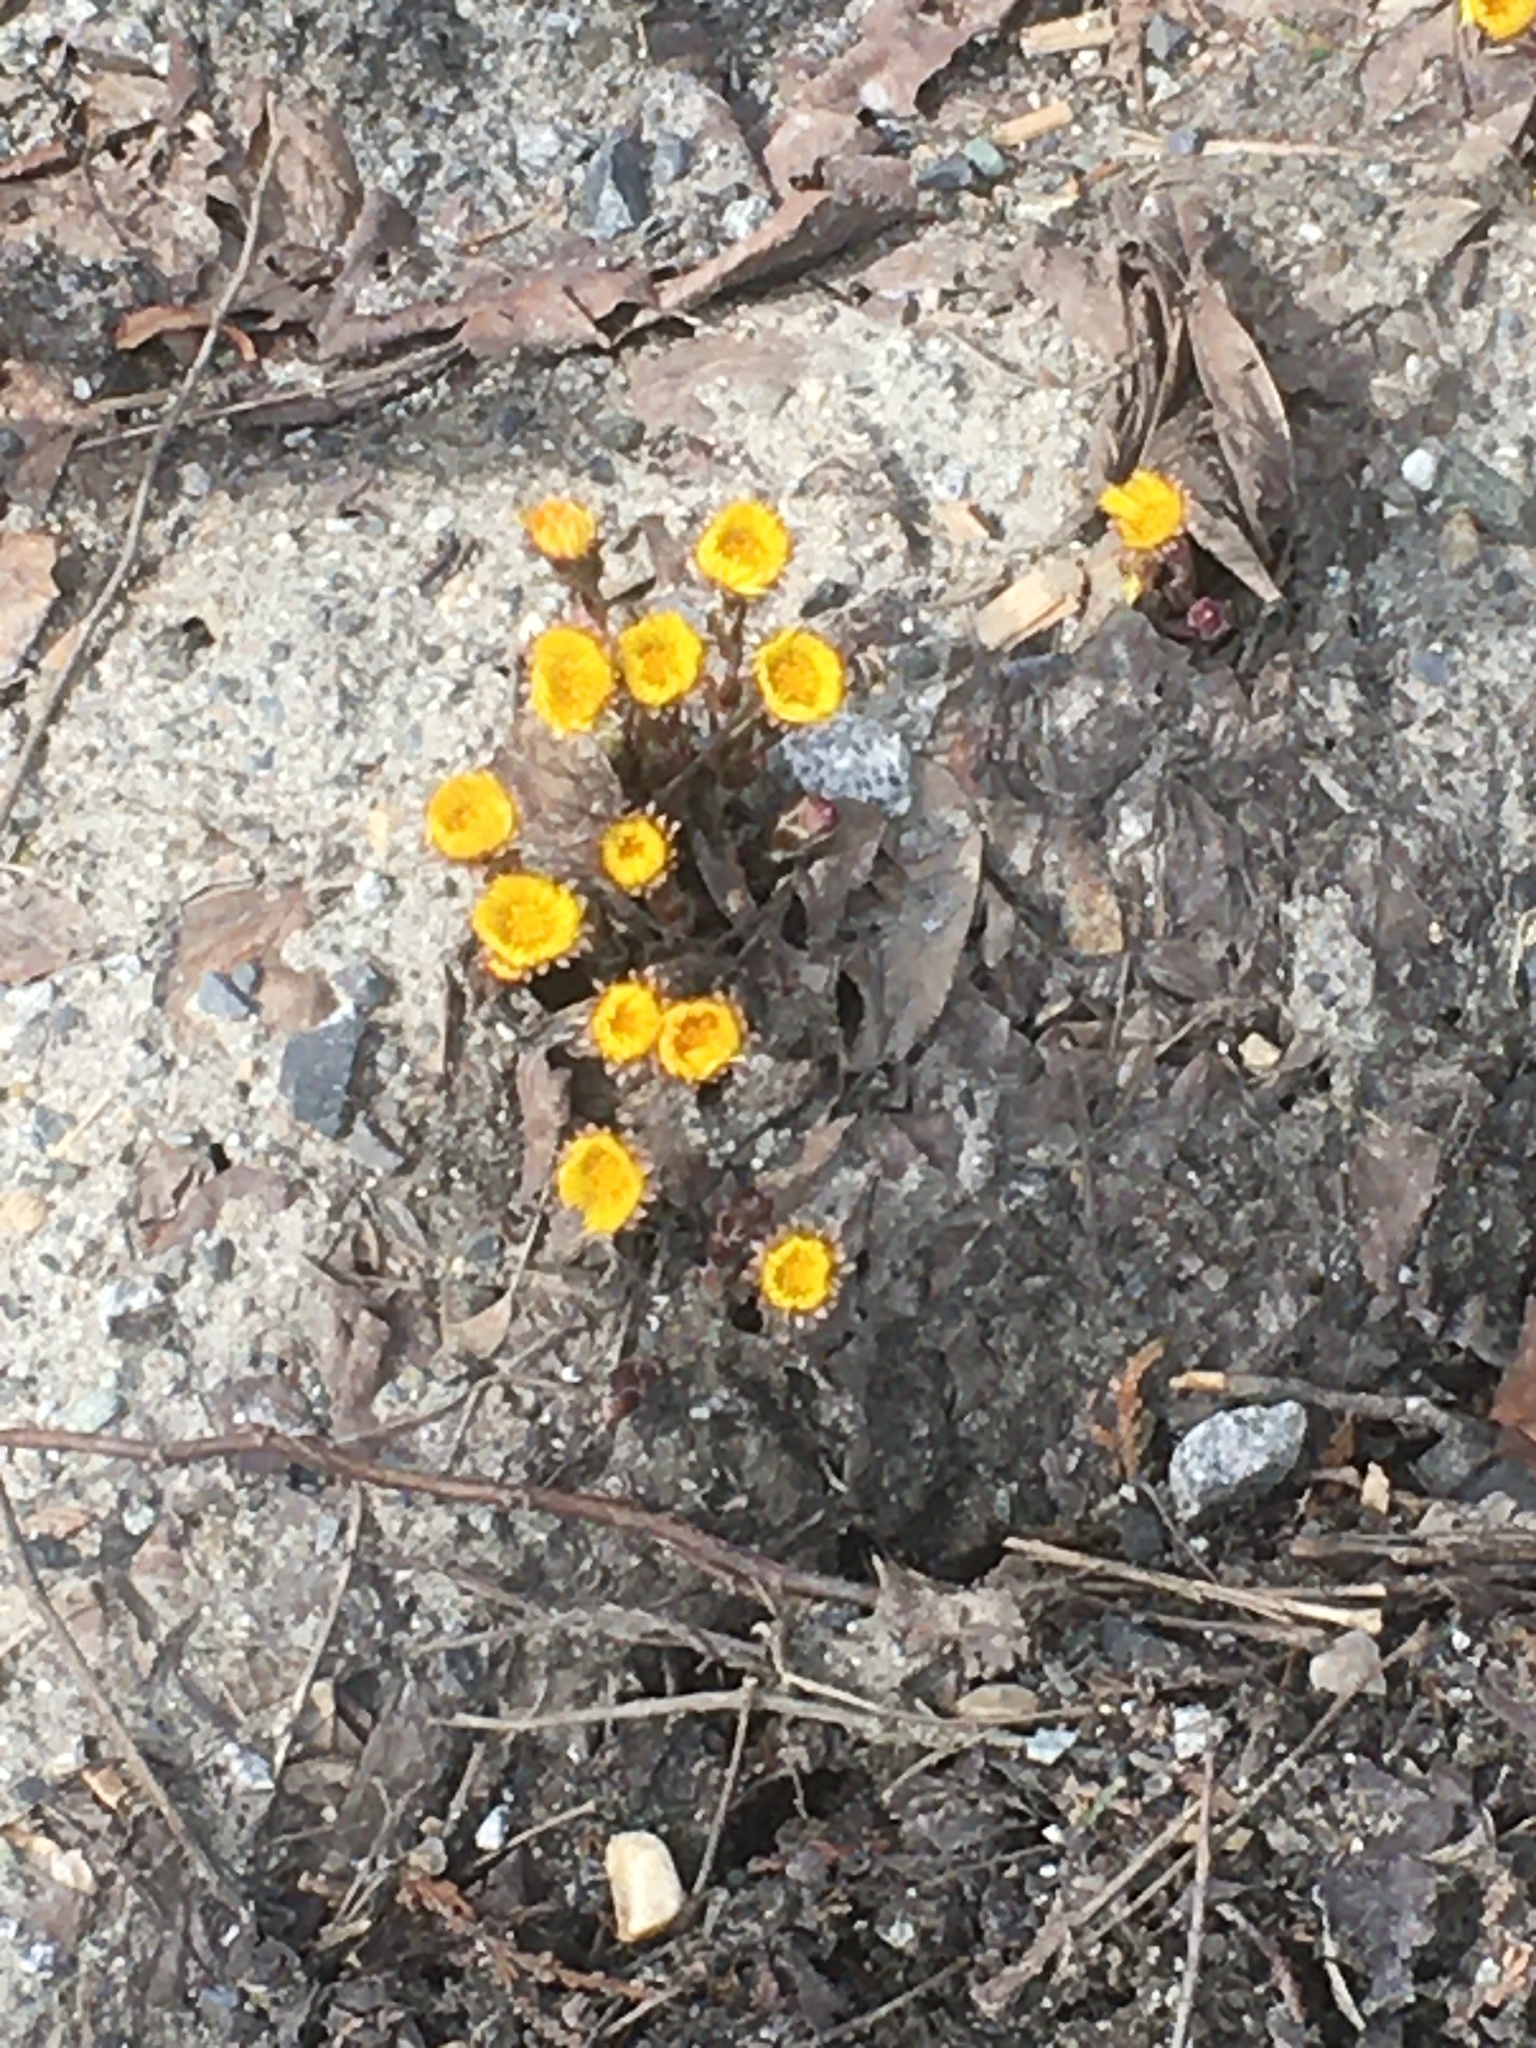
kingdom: Plantae
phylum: Tracheophyta
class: Magnoliopsida
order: Asterales
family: Asteraceae
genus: Tussilago
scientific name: Tussilago farfara
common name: Coltsfoot
